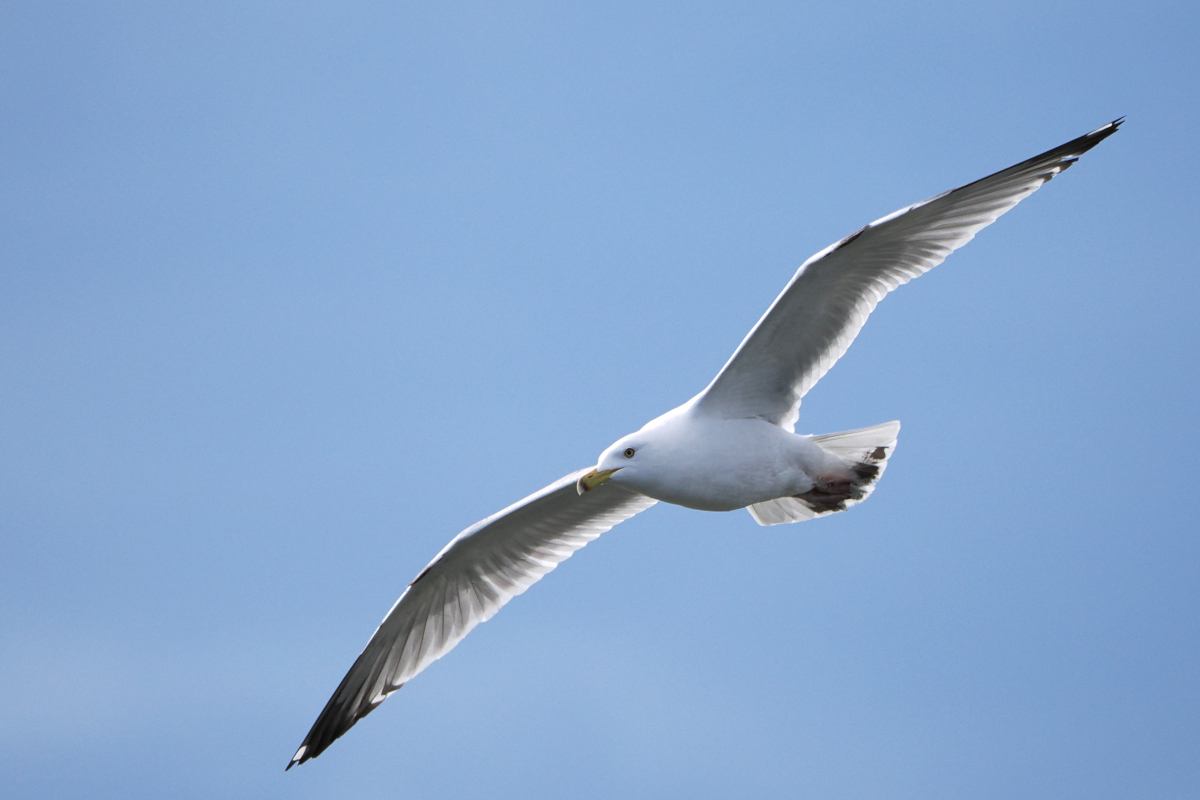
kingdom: Animalia
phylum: Chordata
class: Aves
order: Charadriiformes
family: Laridae
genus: Larus
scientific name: Larus delawarensis
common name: Ring-billed gull
